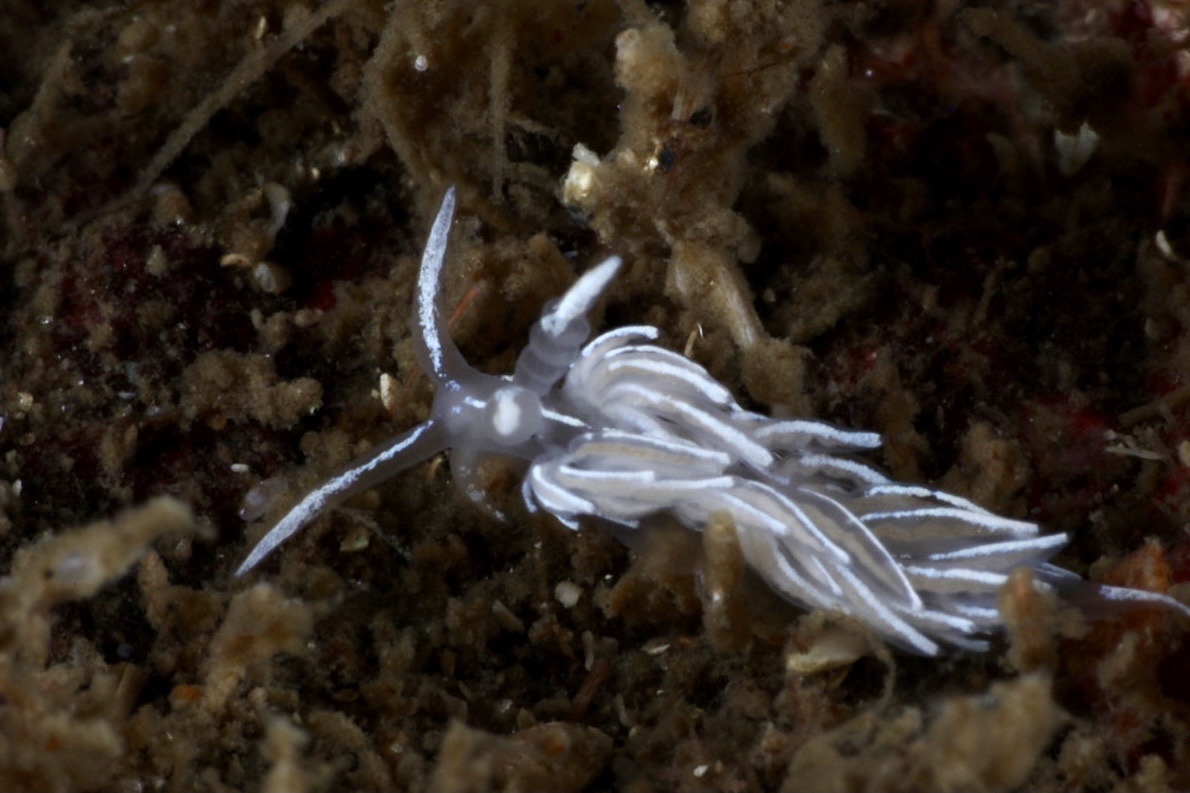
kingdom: Animalia
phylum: Mollusca
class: Gastropoda
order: Nudibranchia
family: Facelinidae
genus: Favorinus
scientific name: Favorinus blianus
